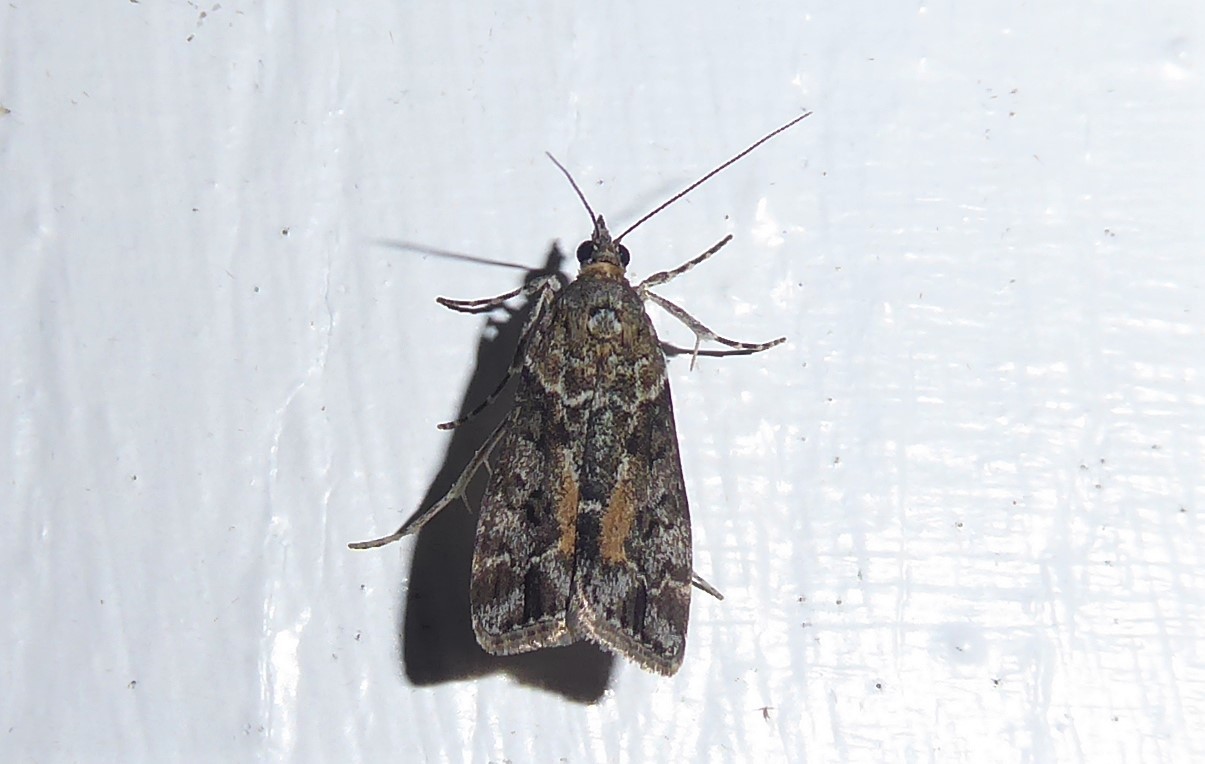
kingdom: Animalia
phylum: Arthropoda
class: Insecta
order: Lepidoptera
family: Crambidae
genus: Eudonia
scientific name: Eudonia submarginalis
